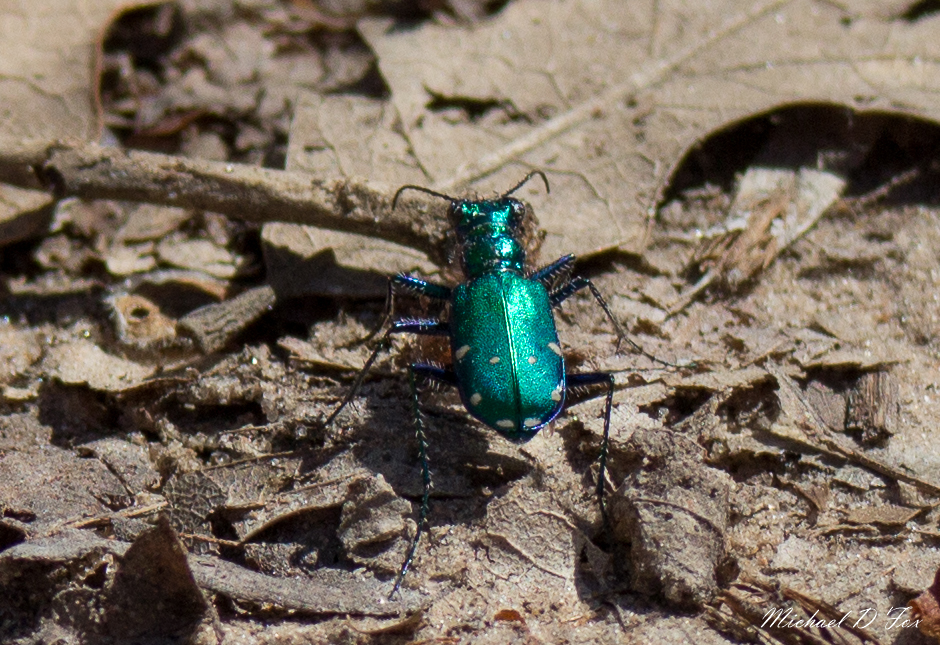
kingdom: Animalia
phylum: Arthropoda
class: Insecta
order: Coleoptera
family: Carabidae
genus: Cicindela
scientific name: Cicindela sexguttata
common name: Six-spotted tiger beetle
